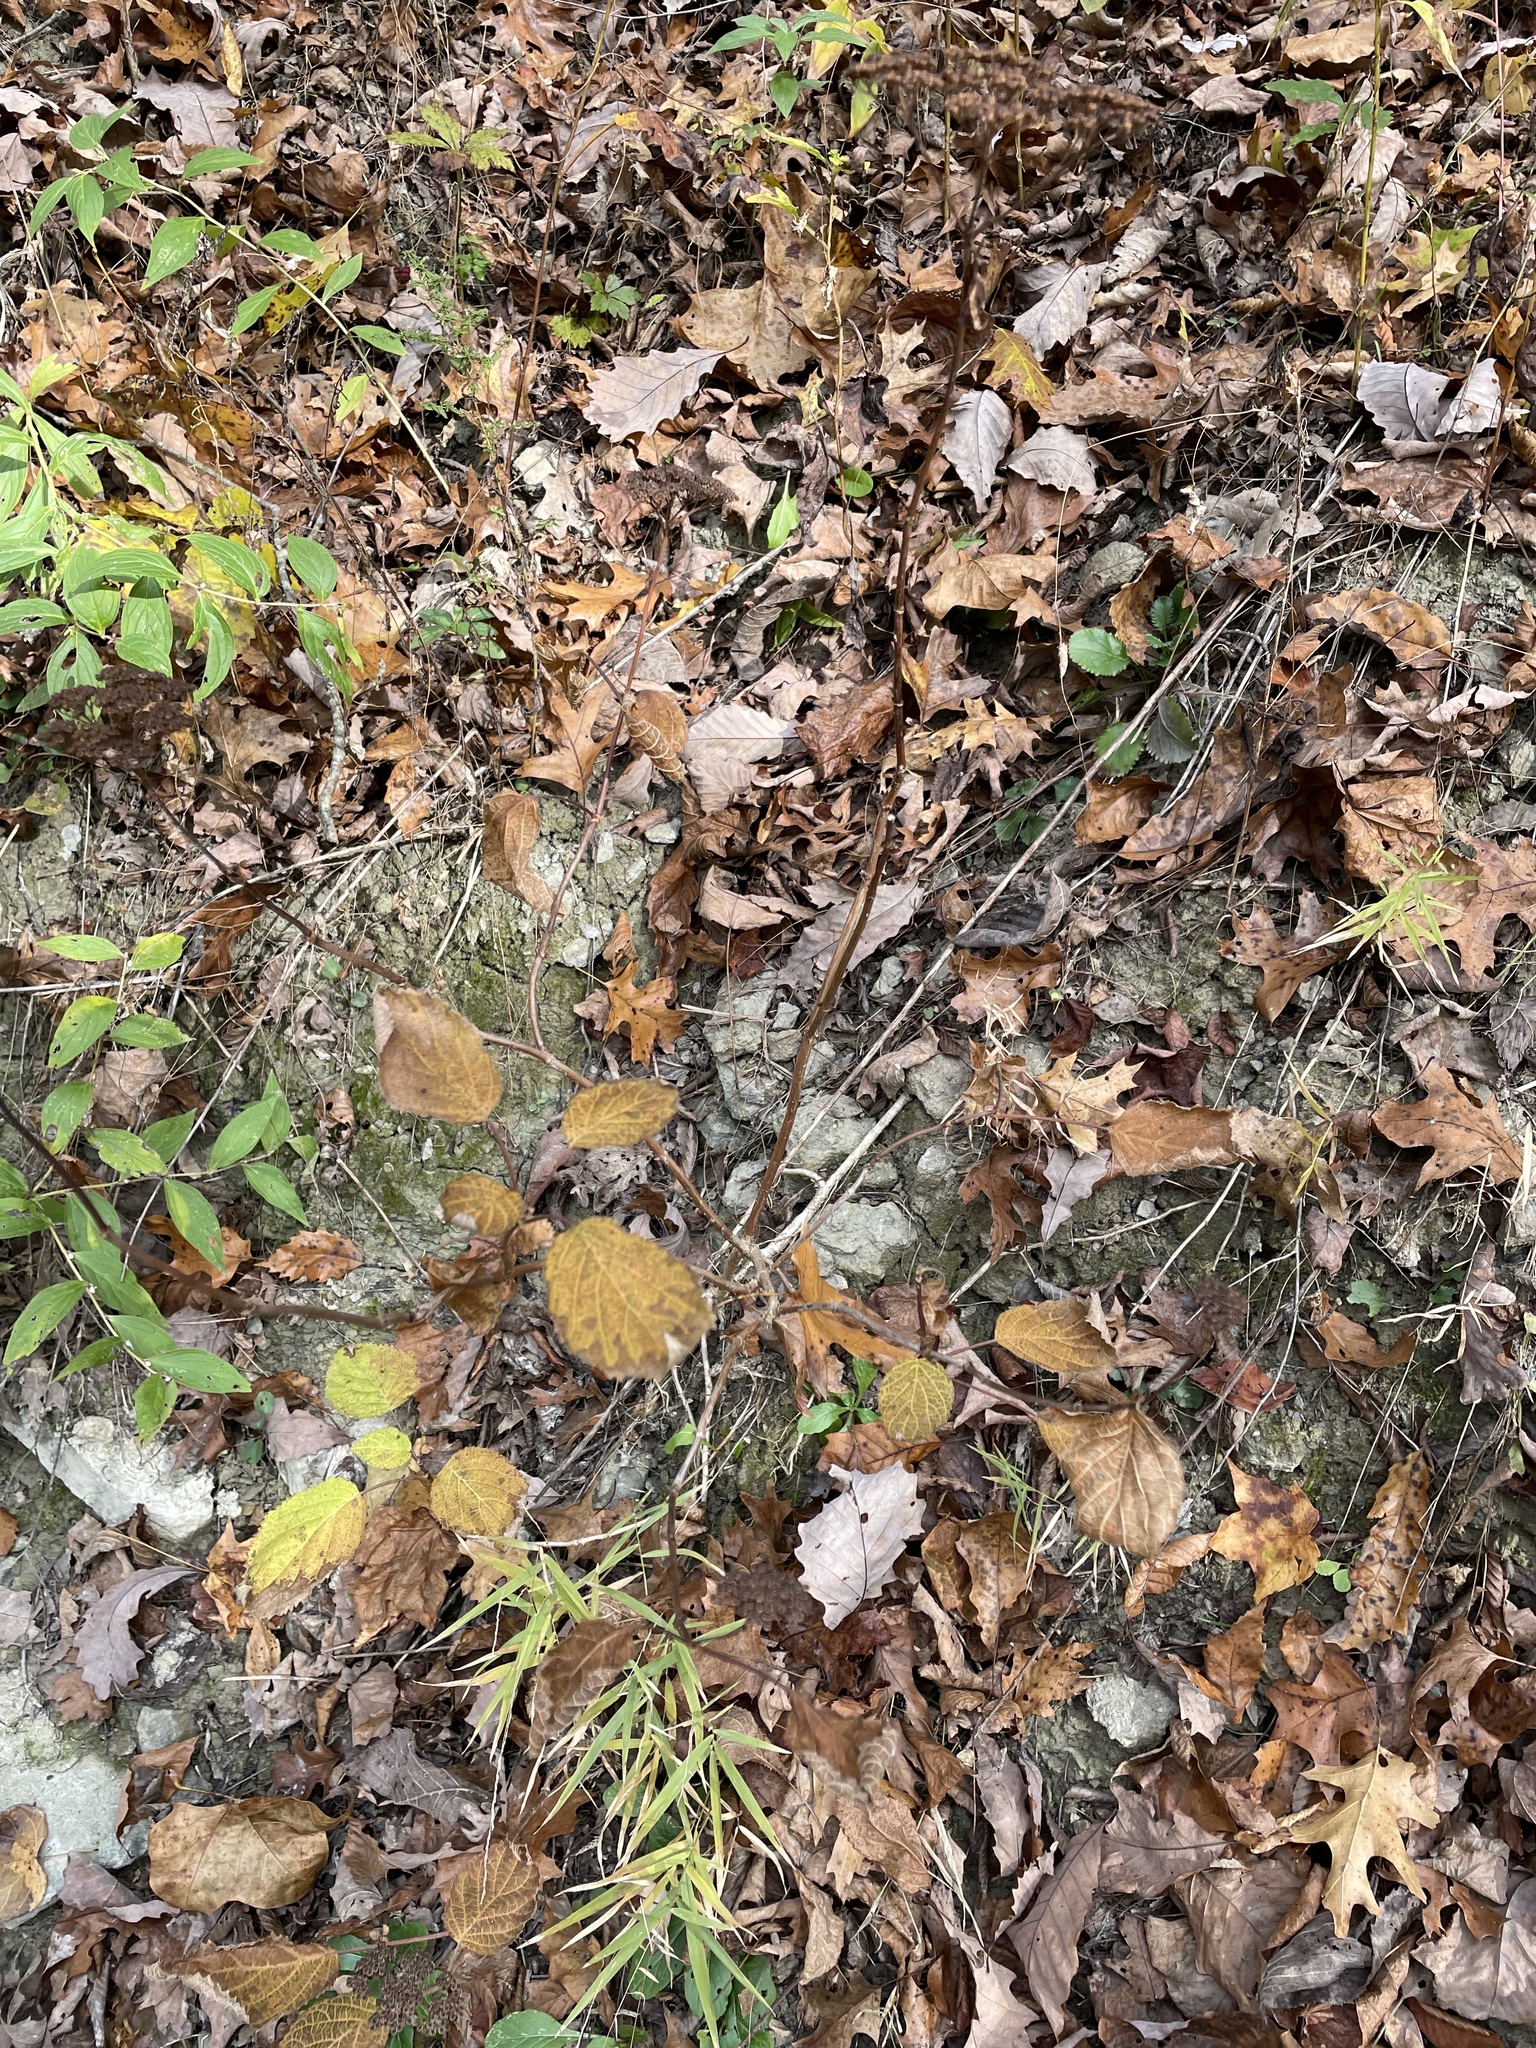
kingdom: Plantae
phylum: Tracheophyta
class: Magnoliopsida
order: Cornales
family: Hydrangeaceae
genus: Hydrangea
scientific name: Hydrangea arborescens
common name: Sevenbark
